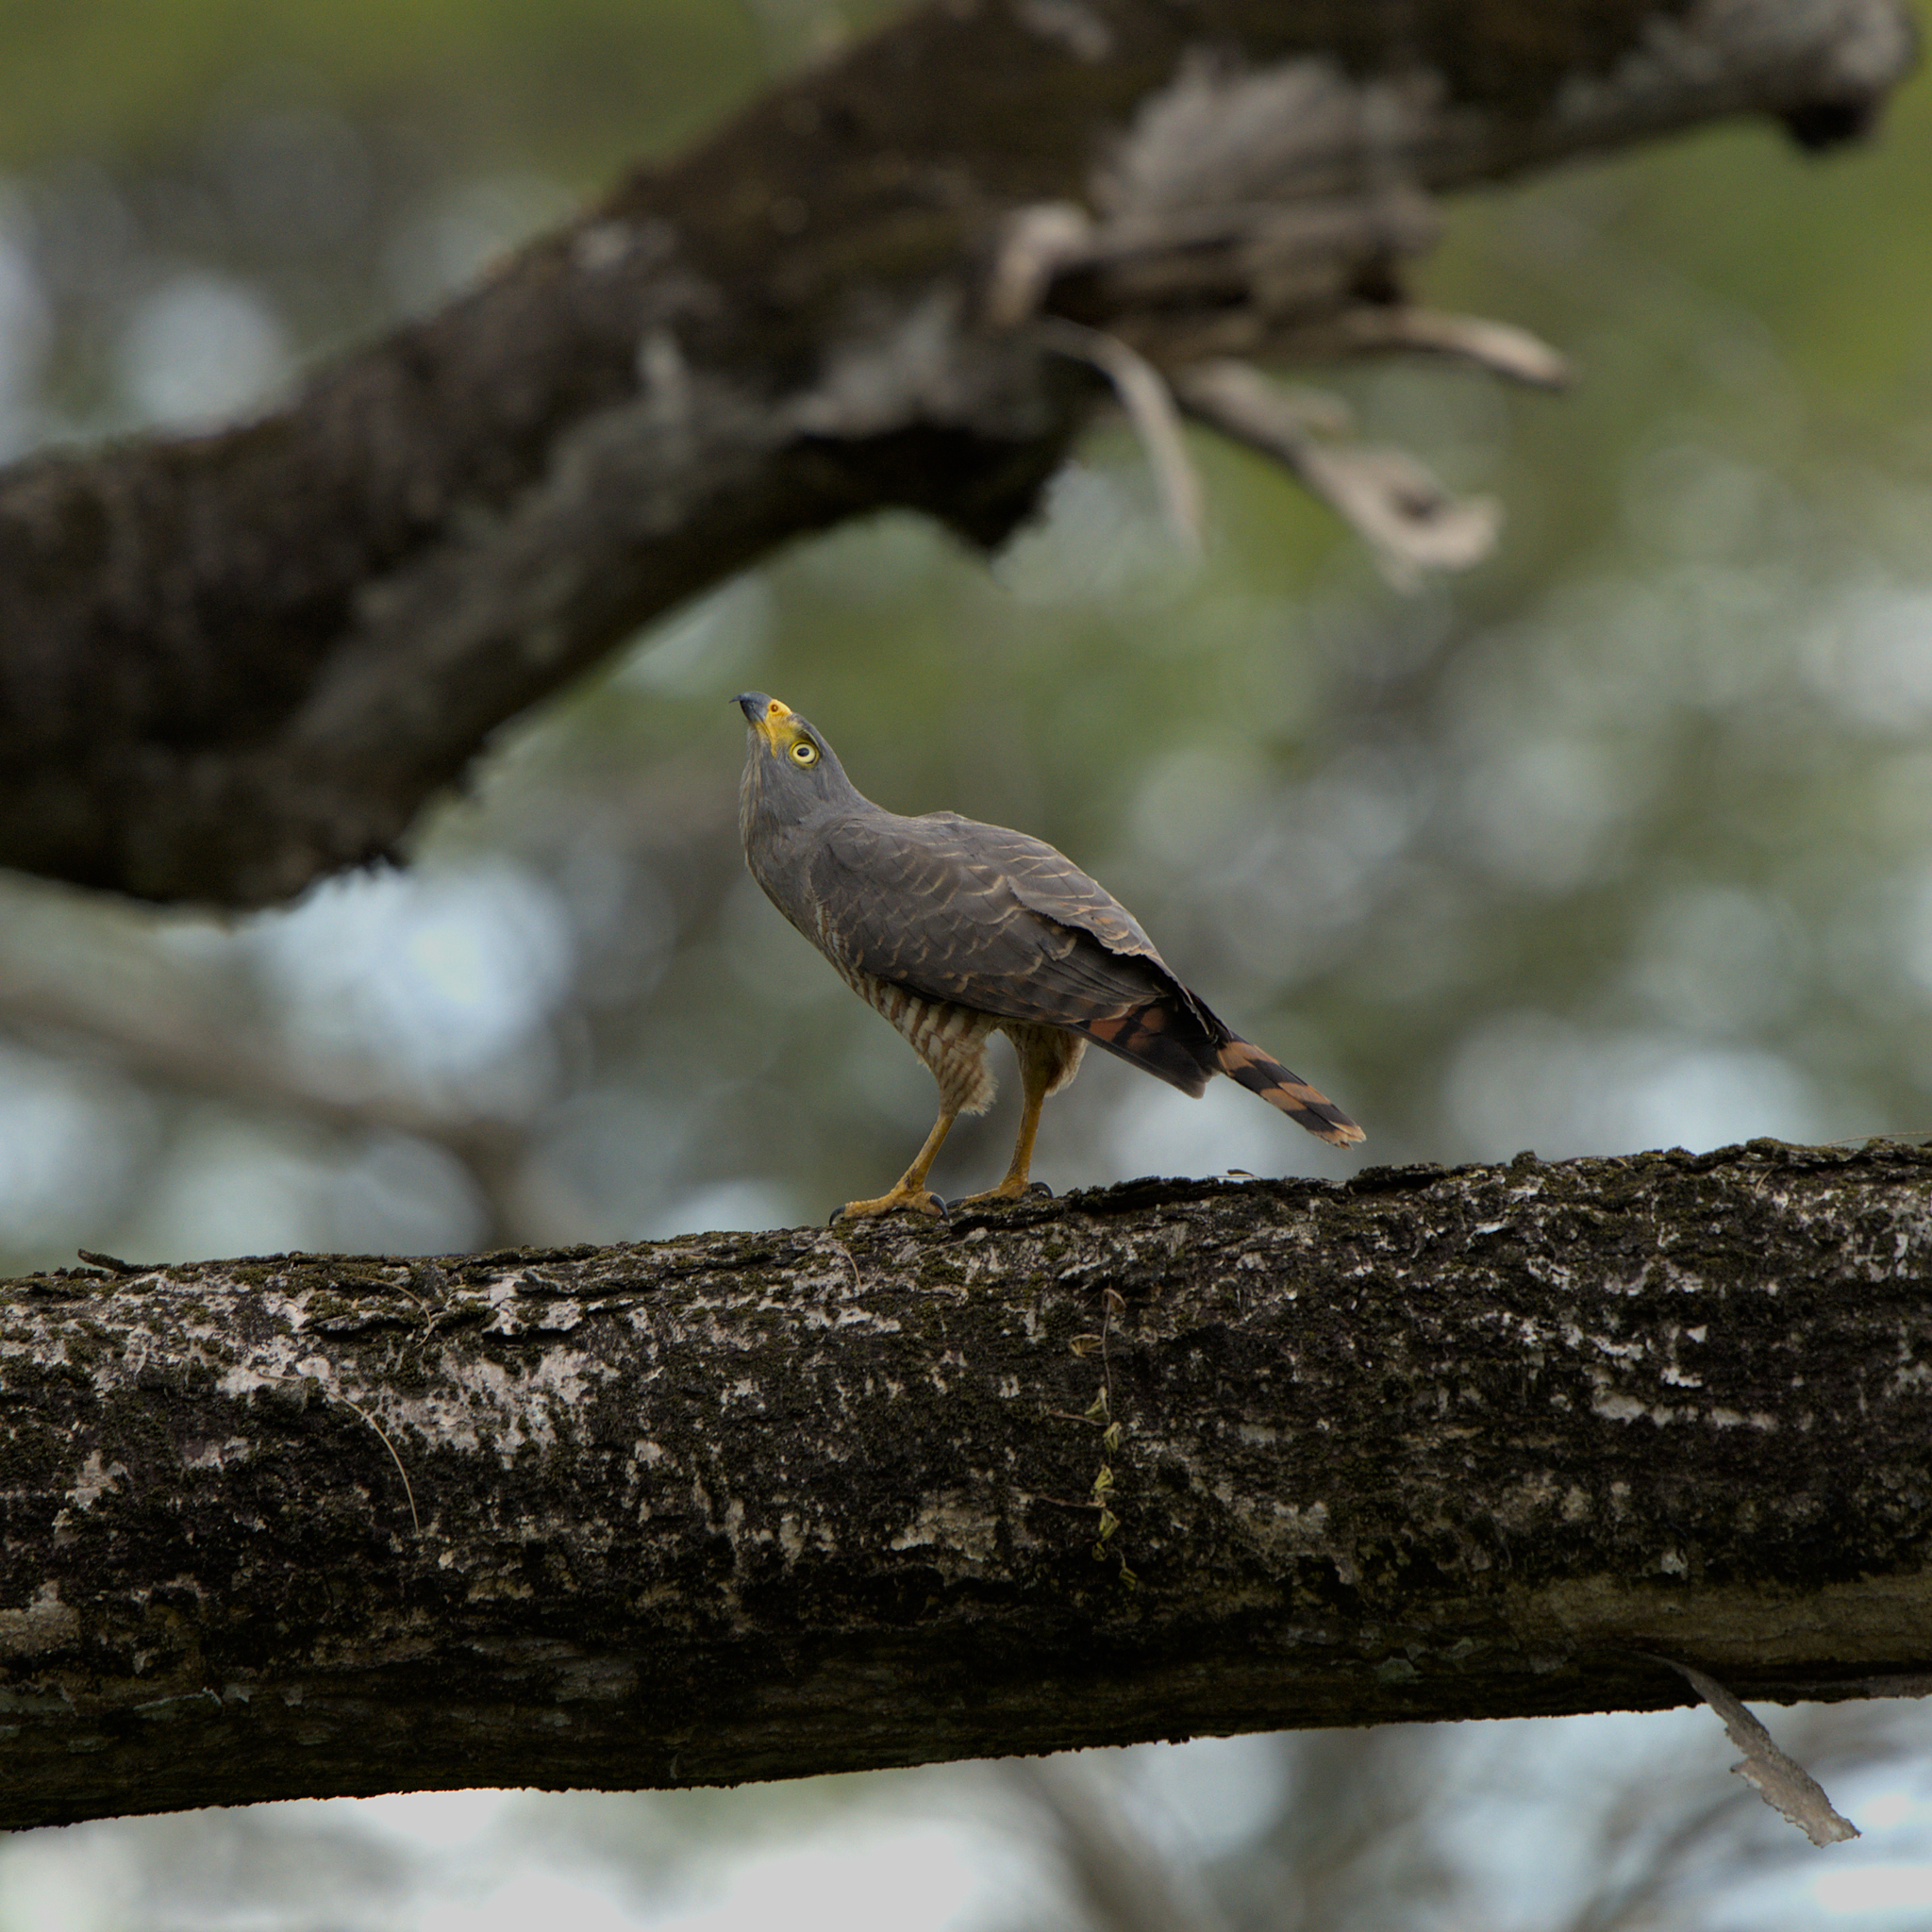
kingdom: Animalia
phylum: Chordata
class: Aves
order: Accipitriformes
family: Accipitridae
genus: Rupornis
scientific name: Rupornis magnirostris
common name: Roadside hawk
